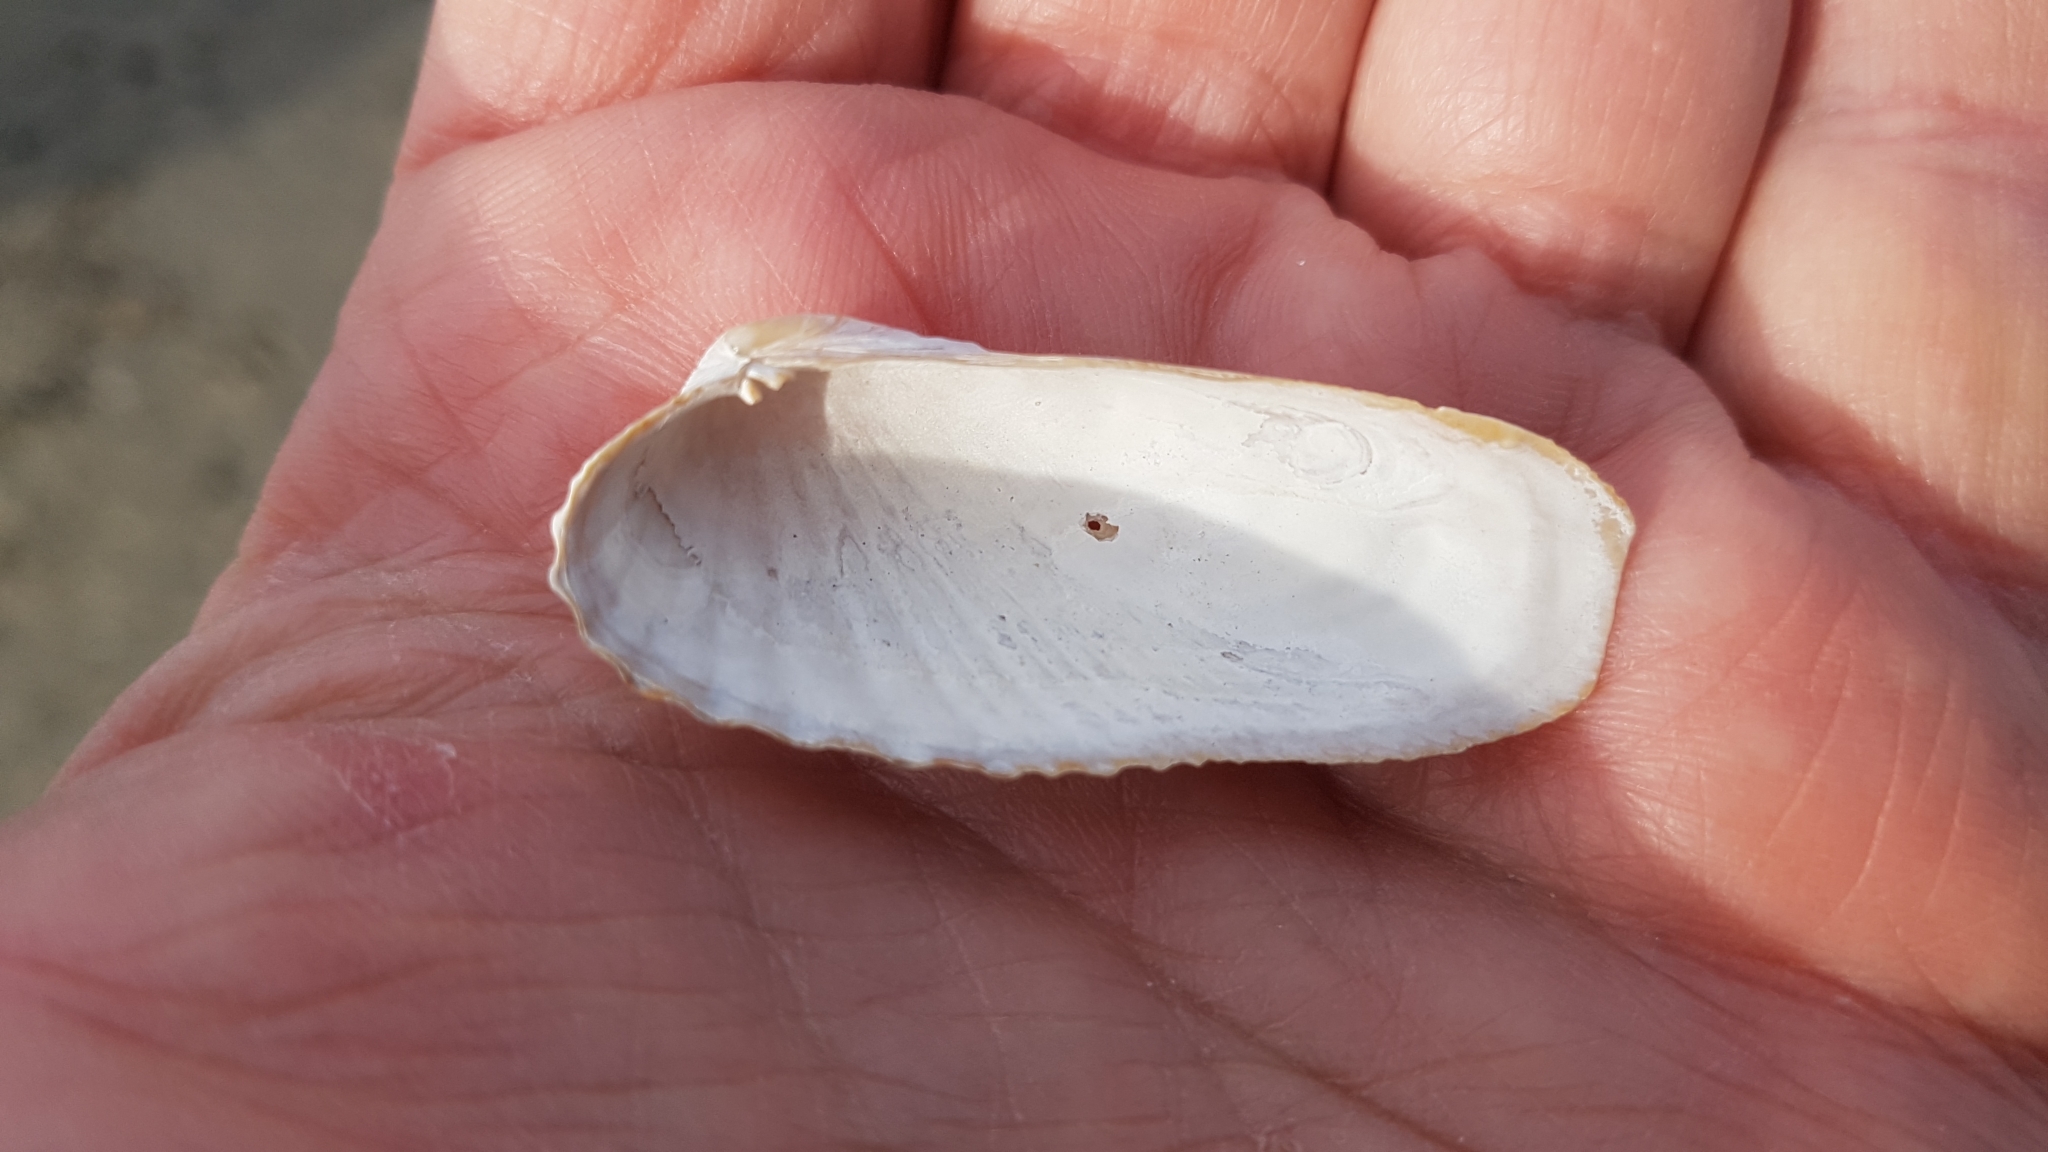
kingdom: Animalia
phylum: Mollusca
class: Bivalvia
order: Venerida
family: Veneridae
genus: Petricolaria
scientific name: Petricolaria pholadiformis
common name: American piddock
